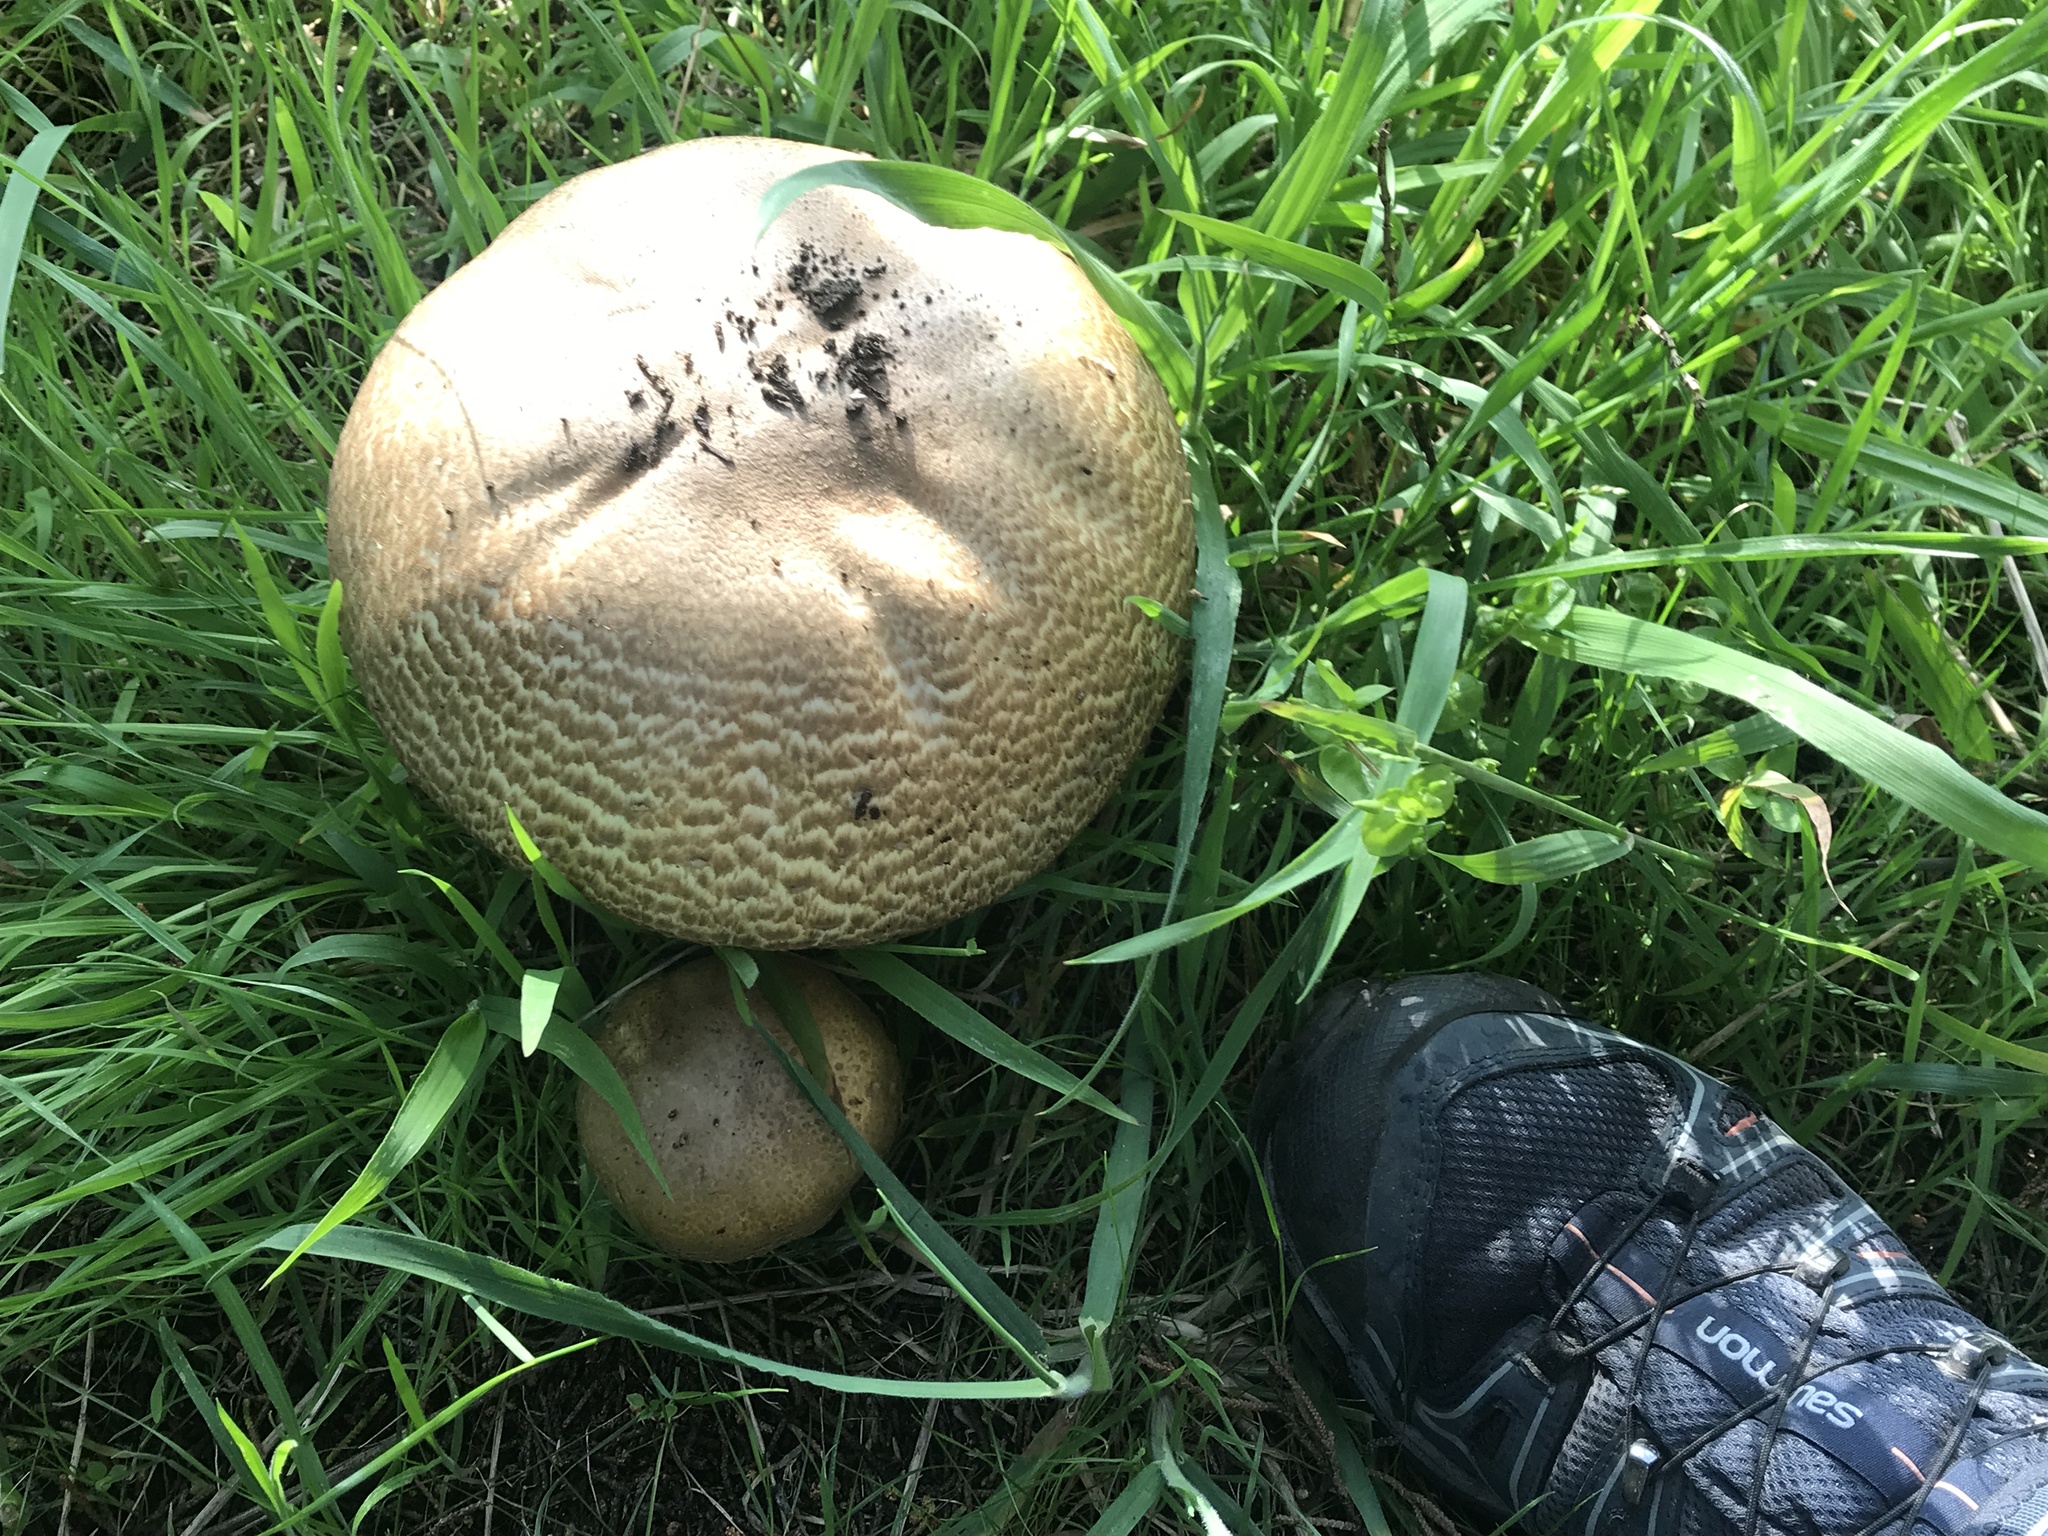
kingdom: Fungi
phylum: Basidiomycota
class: Agaricomycetes
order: Agaricales
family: Agaricaceae
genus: Agaricus
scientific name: Agaricus augustus
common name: Prince
